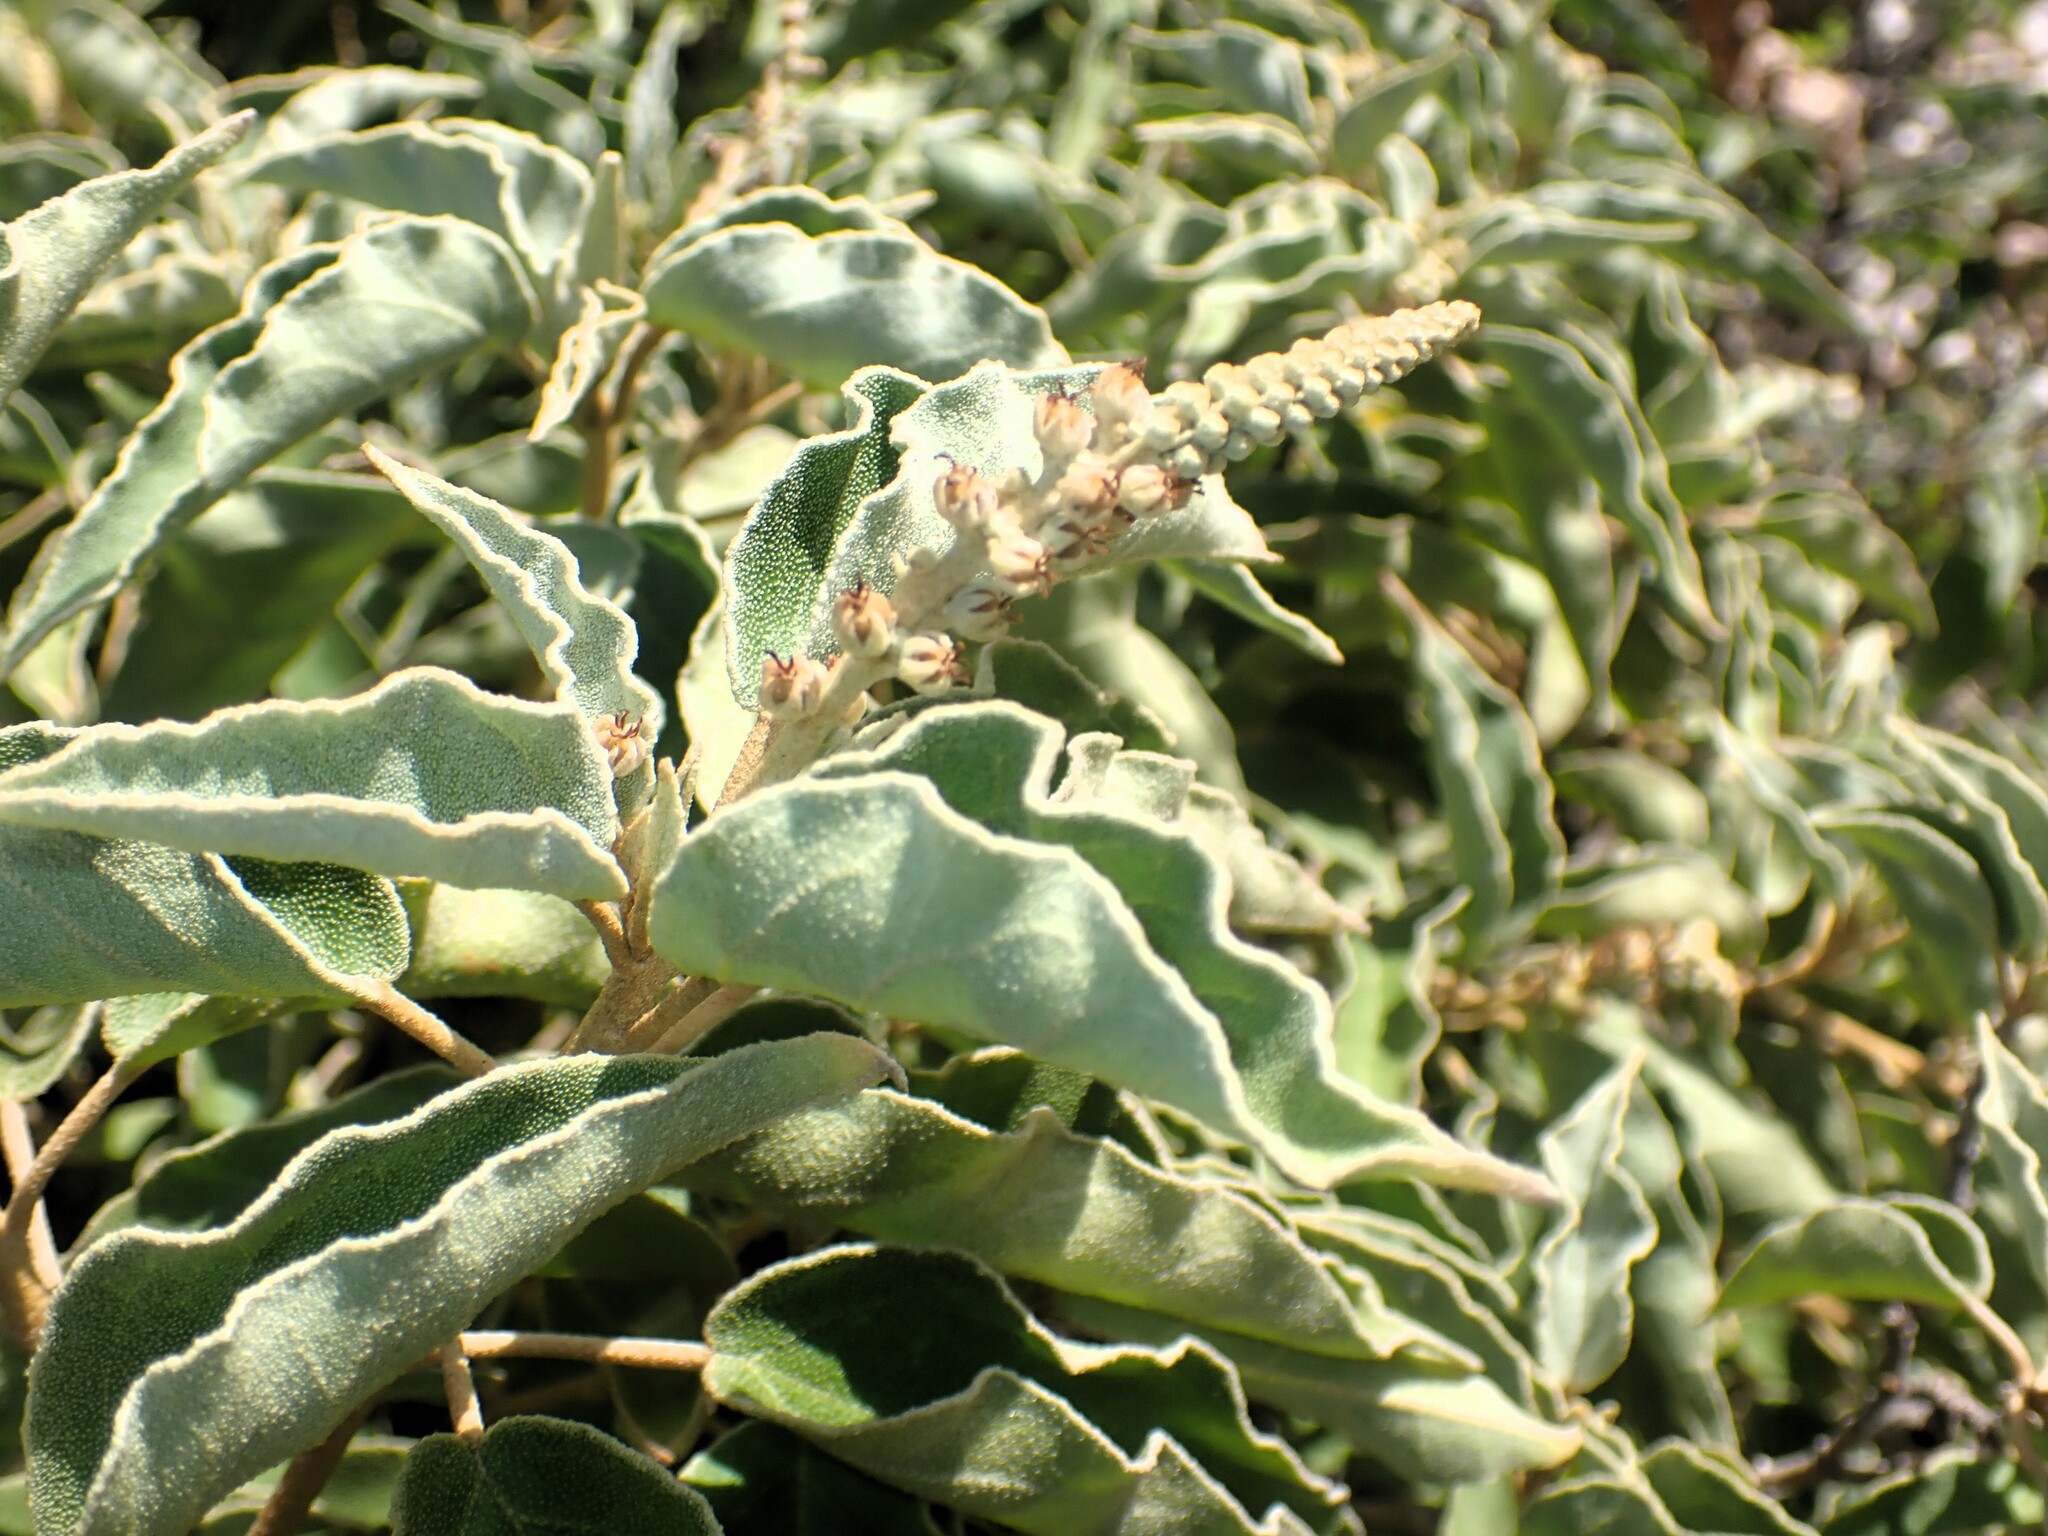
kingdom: Plantae
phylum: Tracheophyta
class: Magnoliopsida
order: Malpighiales
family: Euphorbiaceae
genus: Croton
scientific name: Croton flavens
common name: Yellow balsam
